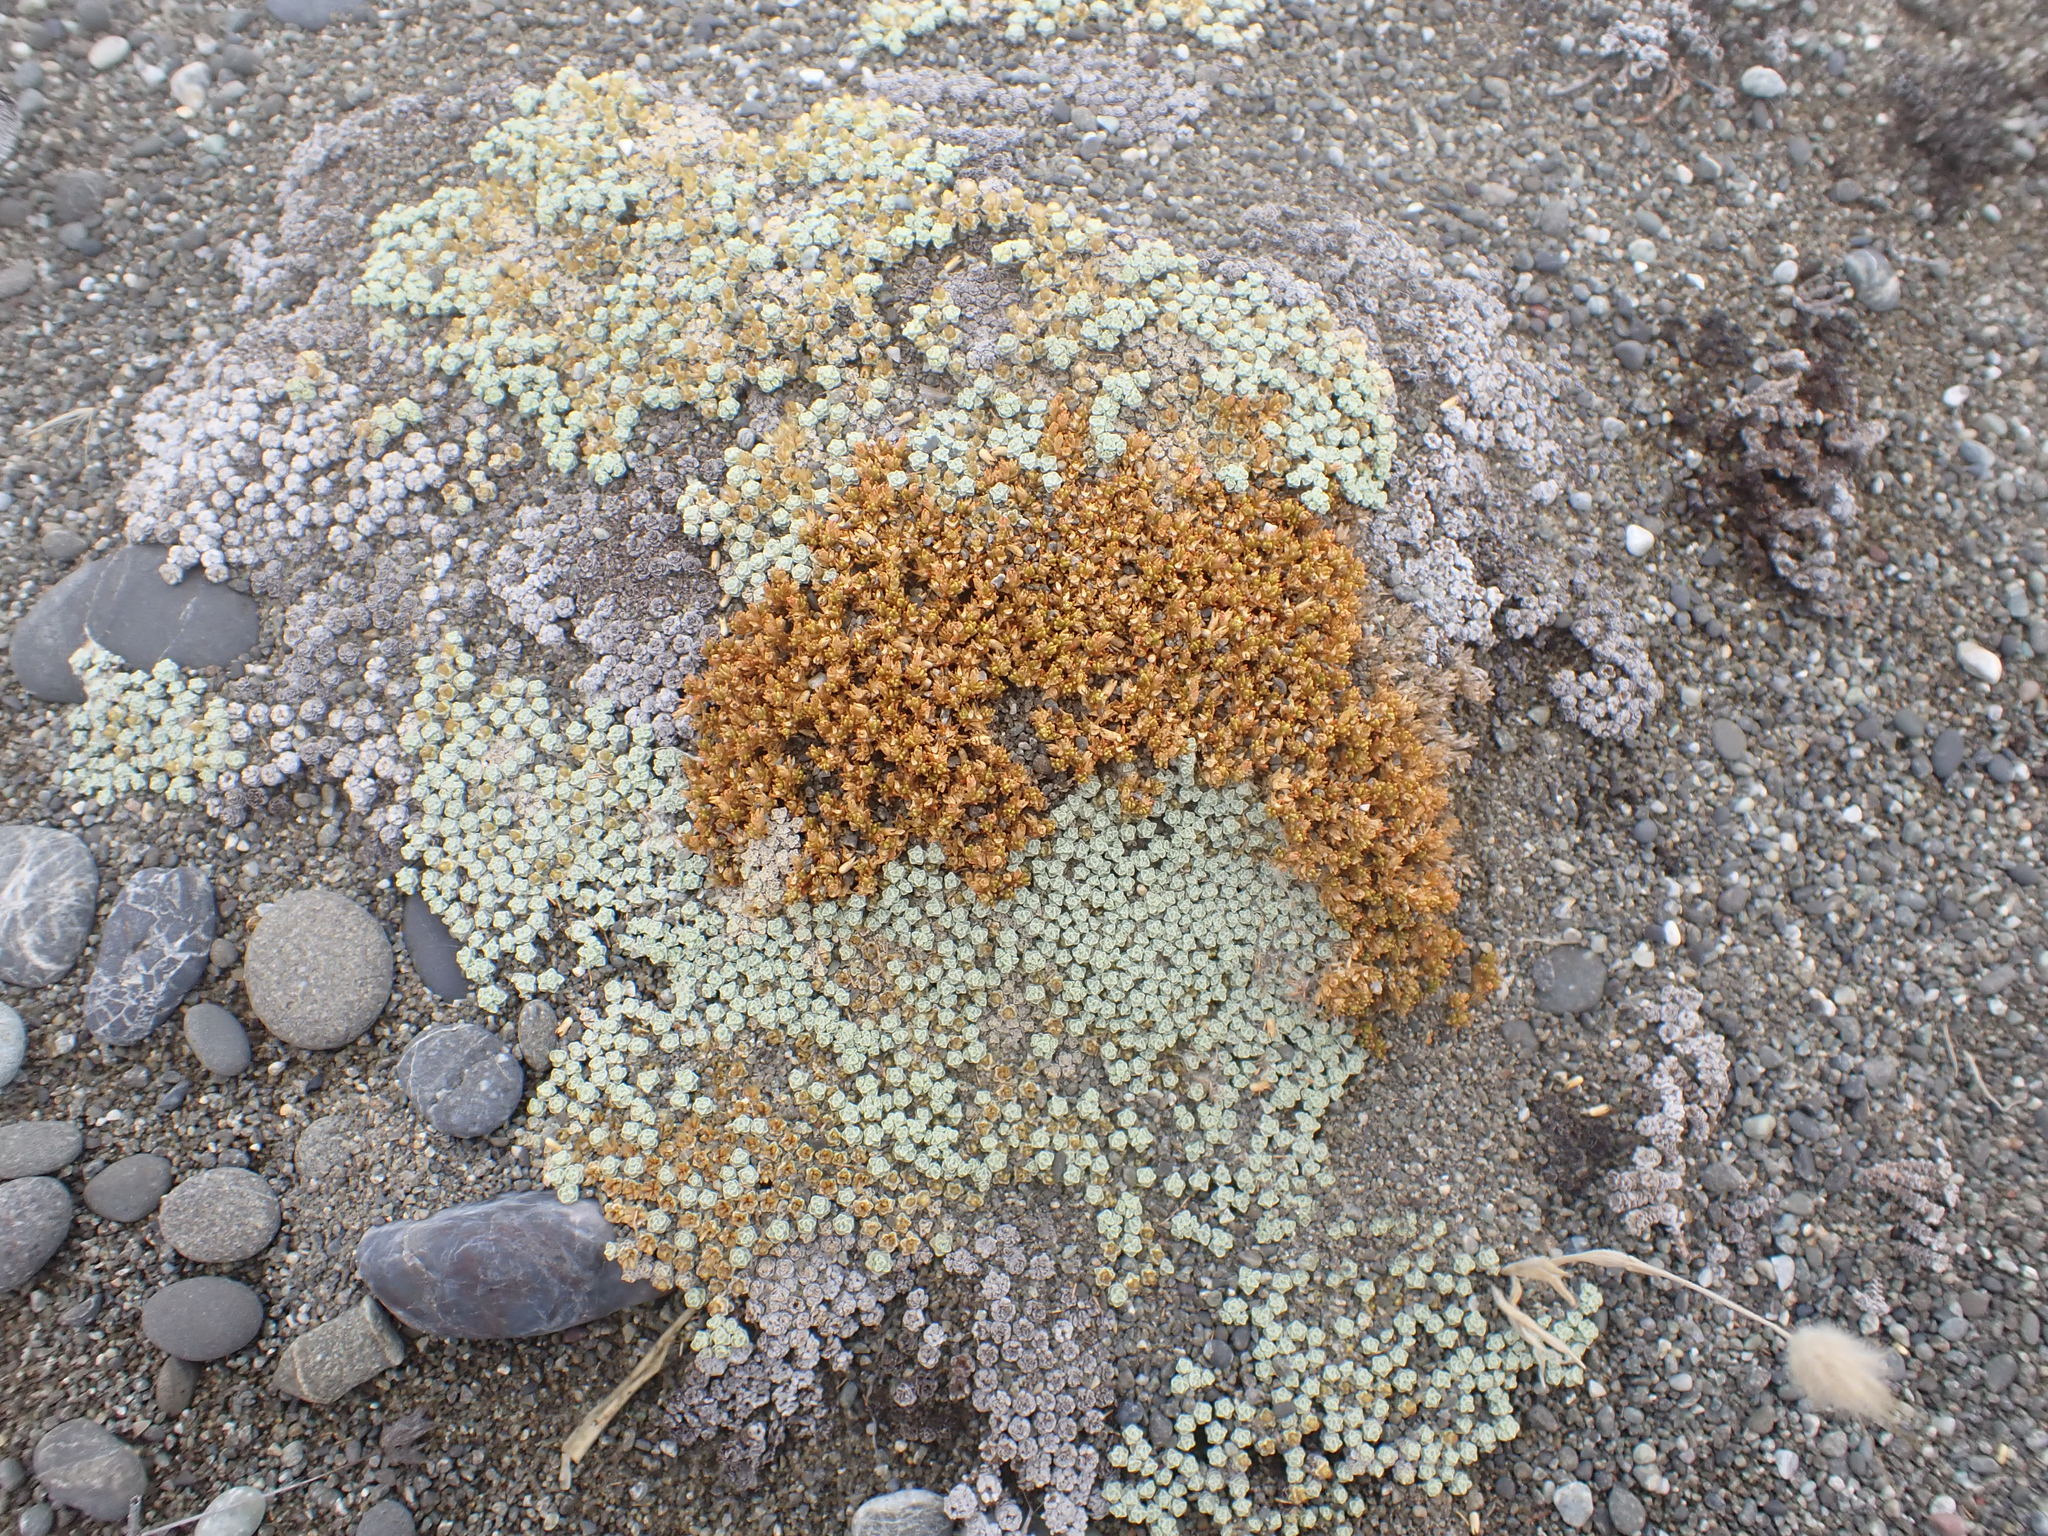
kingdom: Plantae
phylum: Tracheophyta
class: Magnoliopsida
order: Asterales
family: Asteraceae
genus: Raoulia
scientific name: Raoulia australis
